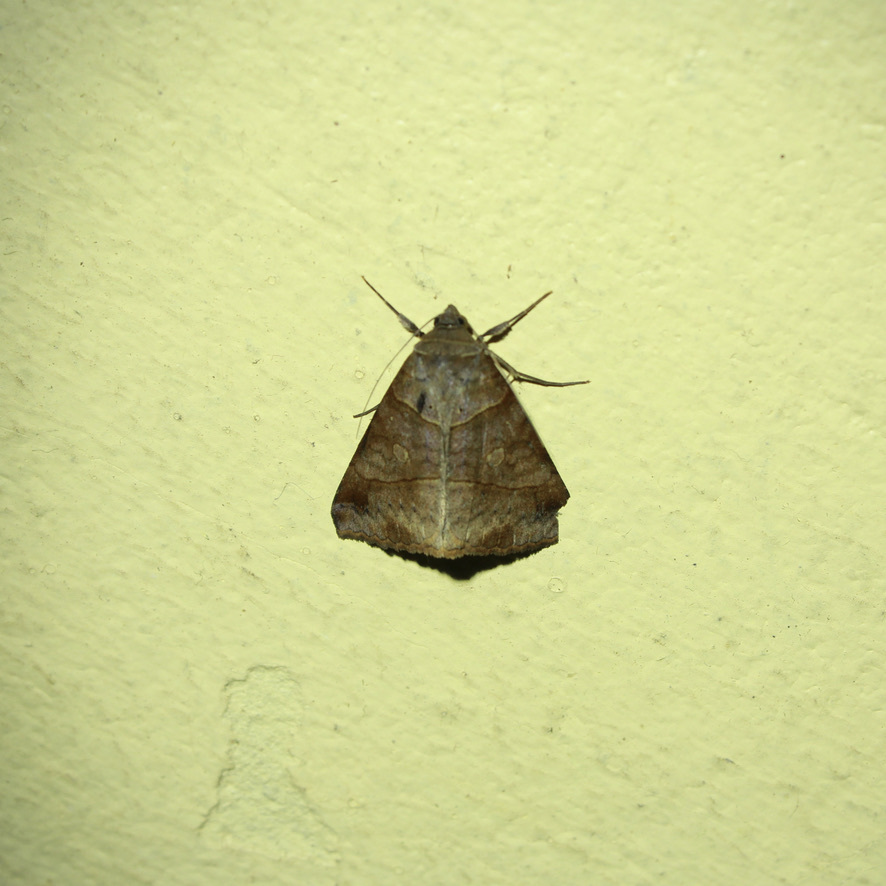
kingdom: Animalia
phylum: Arthropoda
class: Insecta
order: Lepidoptera
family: Erebidae
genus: Mocis
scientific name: Mocis diffluens
